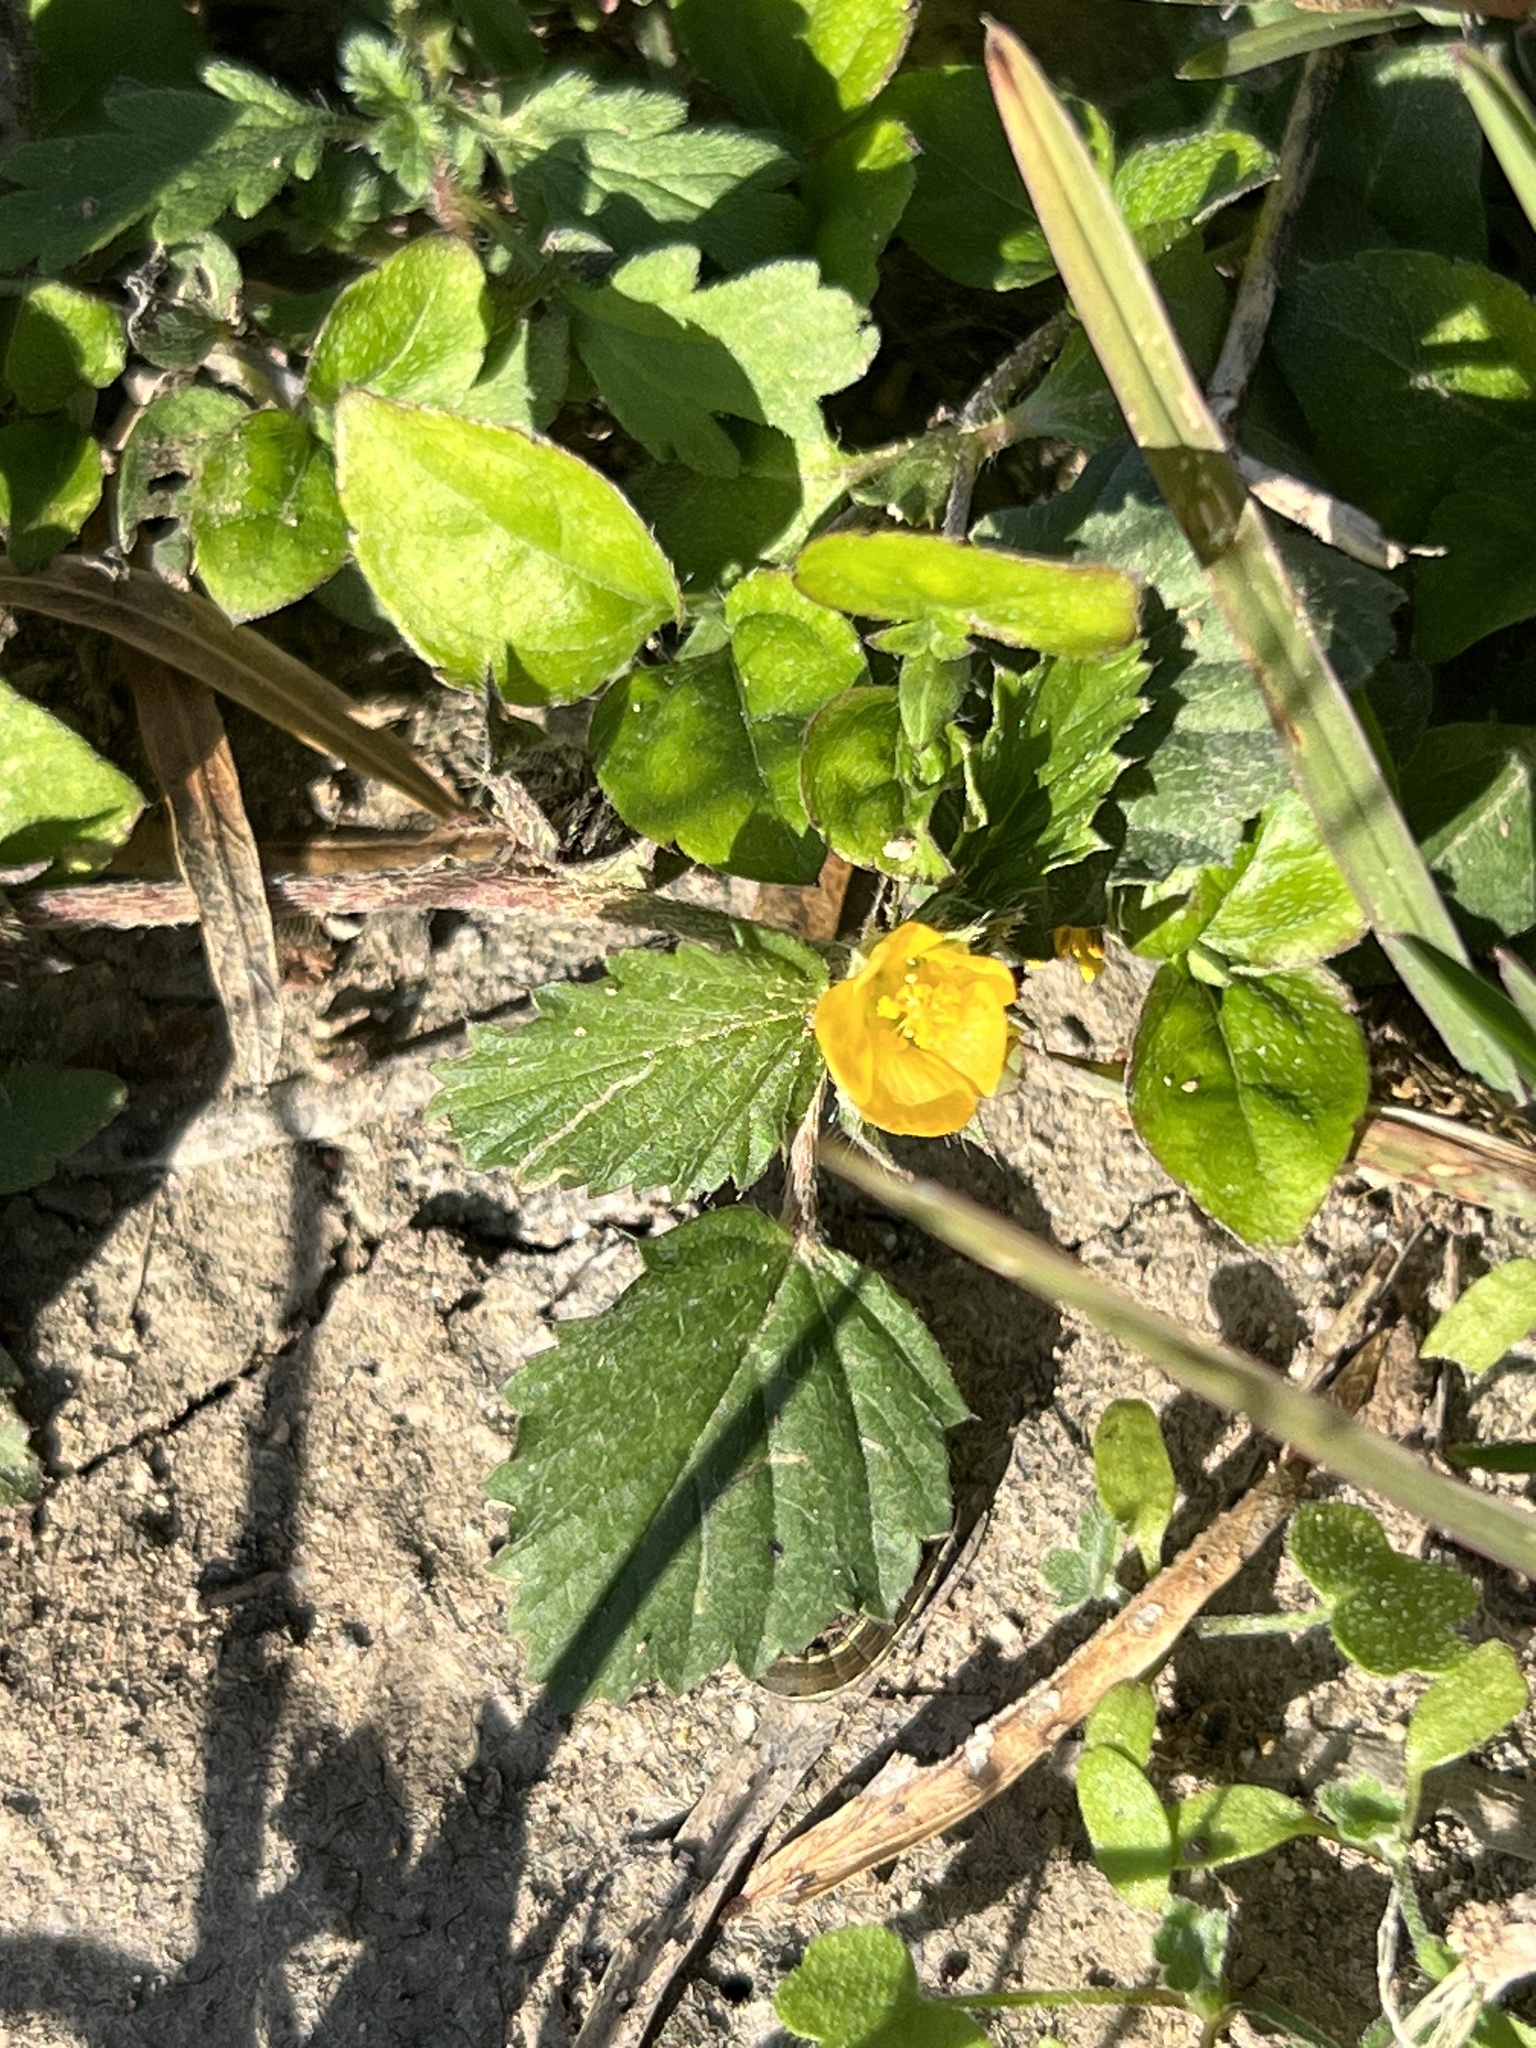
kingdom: Plantae
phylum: Tracheophyta
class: Magnoliopsida
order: Malvales
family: Malvaceae
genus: Malvastrum
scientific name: Malvastrum coromandelianum
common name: Threelobe false mallow
